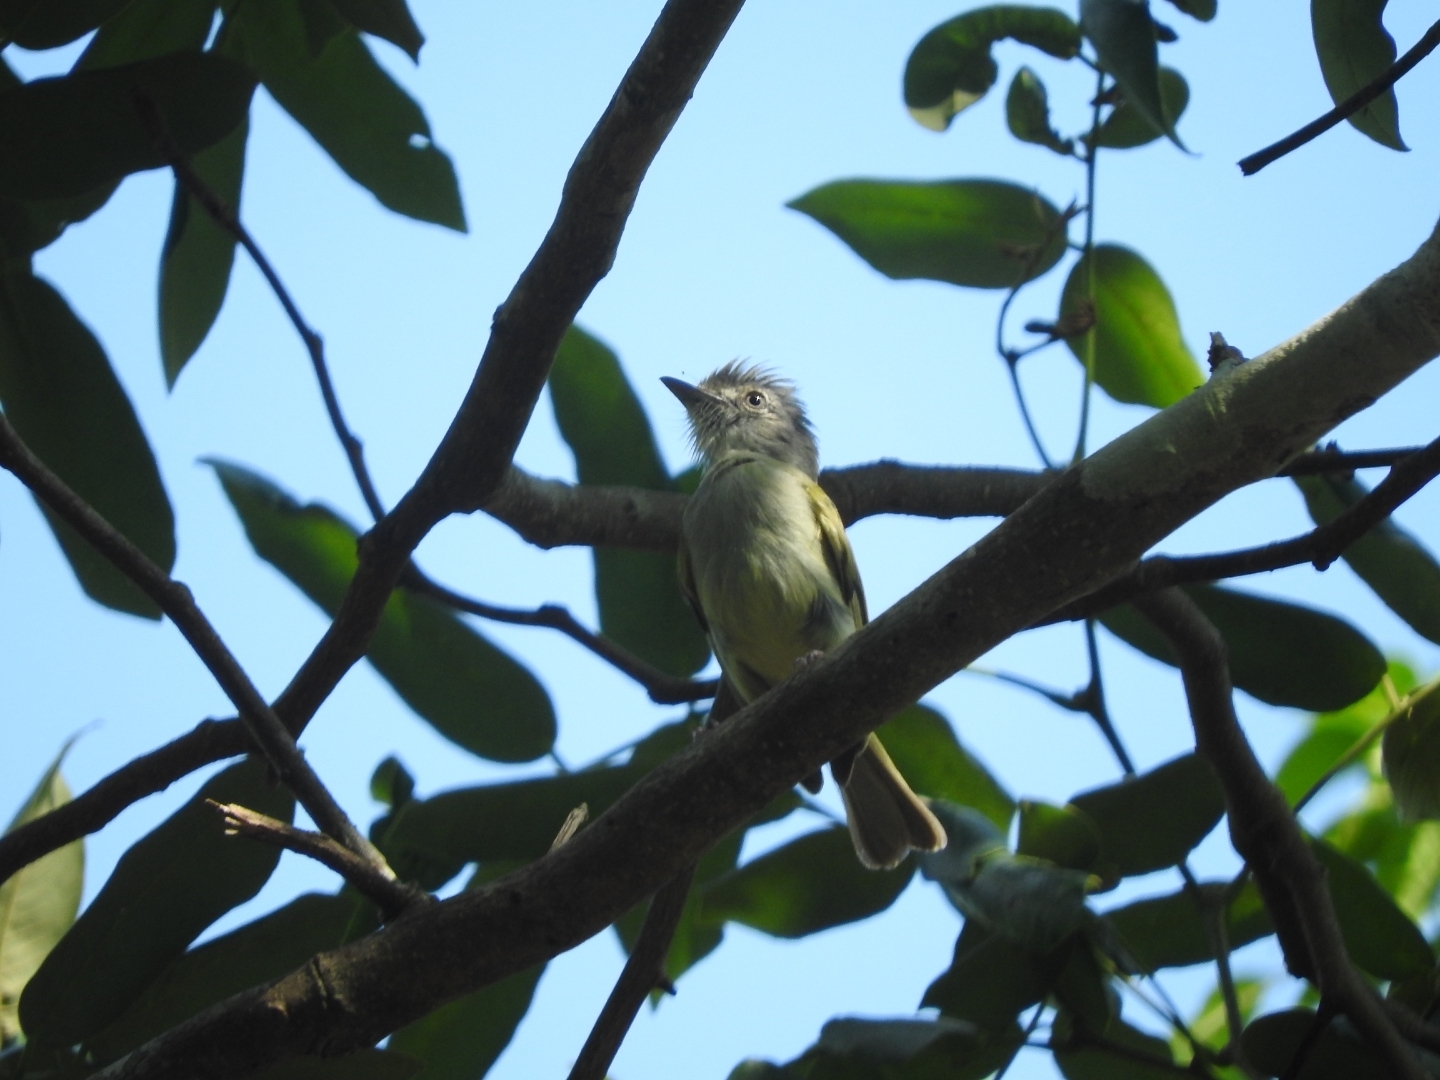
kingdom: Animalia
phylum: Chordata
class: Aves
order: Passeriformes
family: Tyrannidae
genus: Tolmomyias
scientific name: Tolmomyias sulphurescens
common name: Yellow-olive flycatcher
